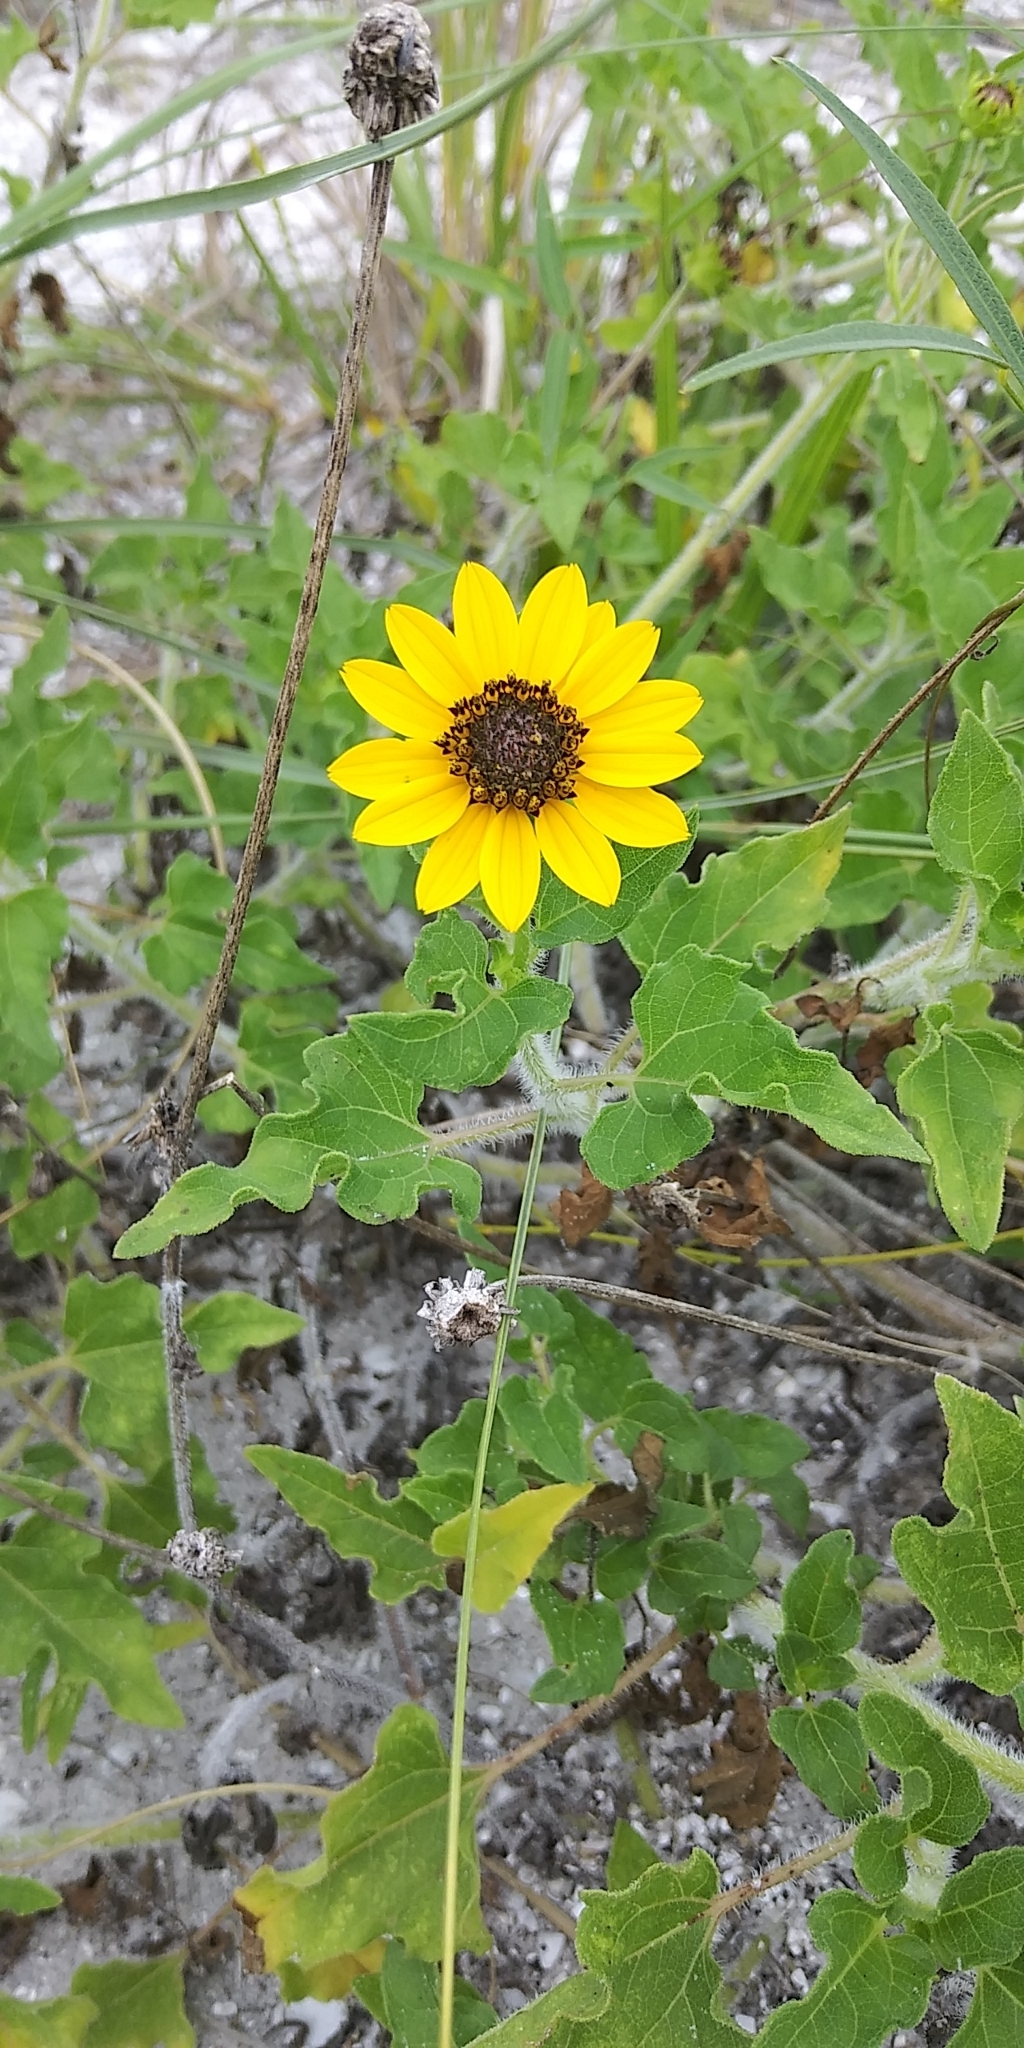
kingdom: Plantae
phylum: Tracheophyta
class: Magnoliopsida
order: Asterales
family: Asteraceae
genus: Helianthus
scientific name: Helianthus debilis
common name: Weak sunflower
